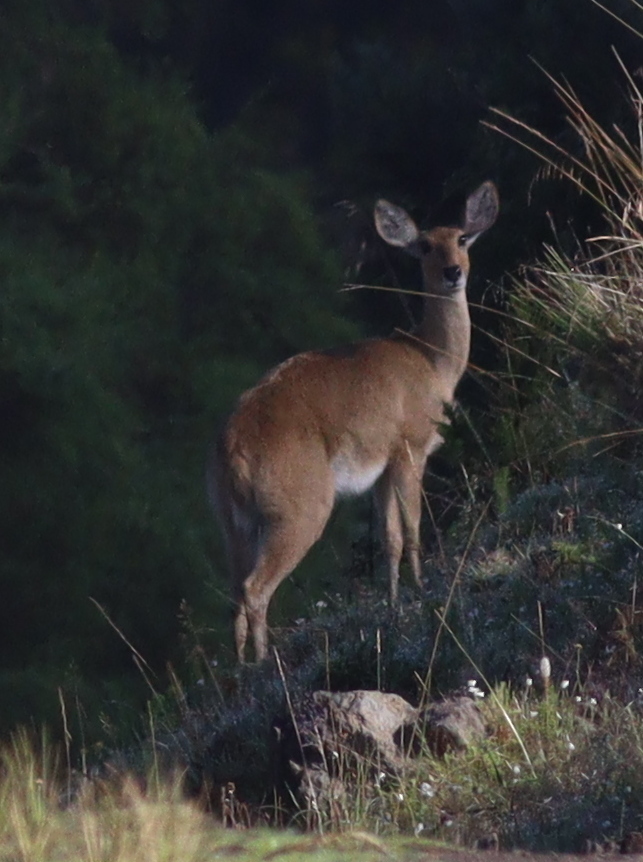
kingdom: Animalia
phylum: Chordata
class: Mammalia
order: Artiodactyla
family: Bovidae
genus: Redunca
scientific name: Redunca redunca
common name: Common reedbuck
